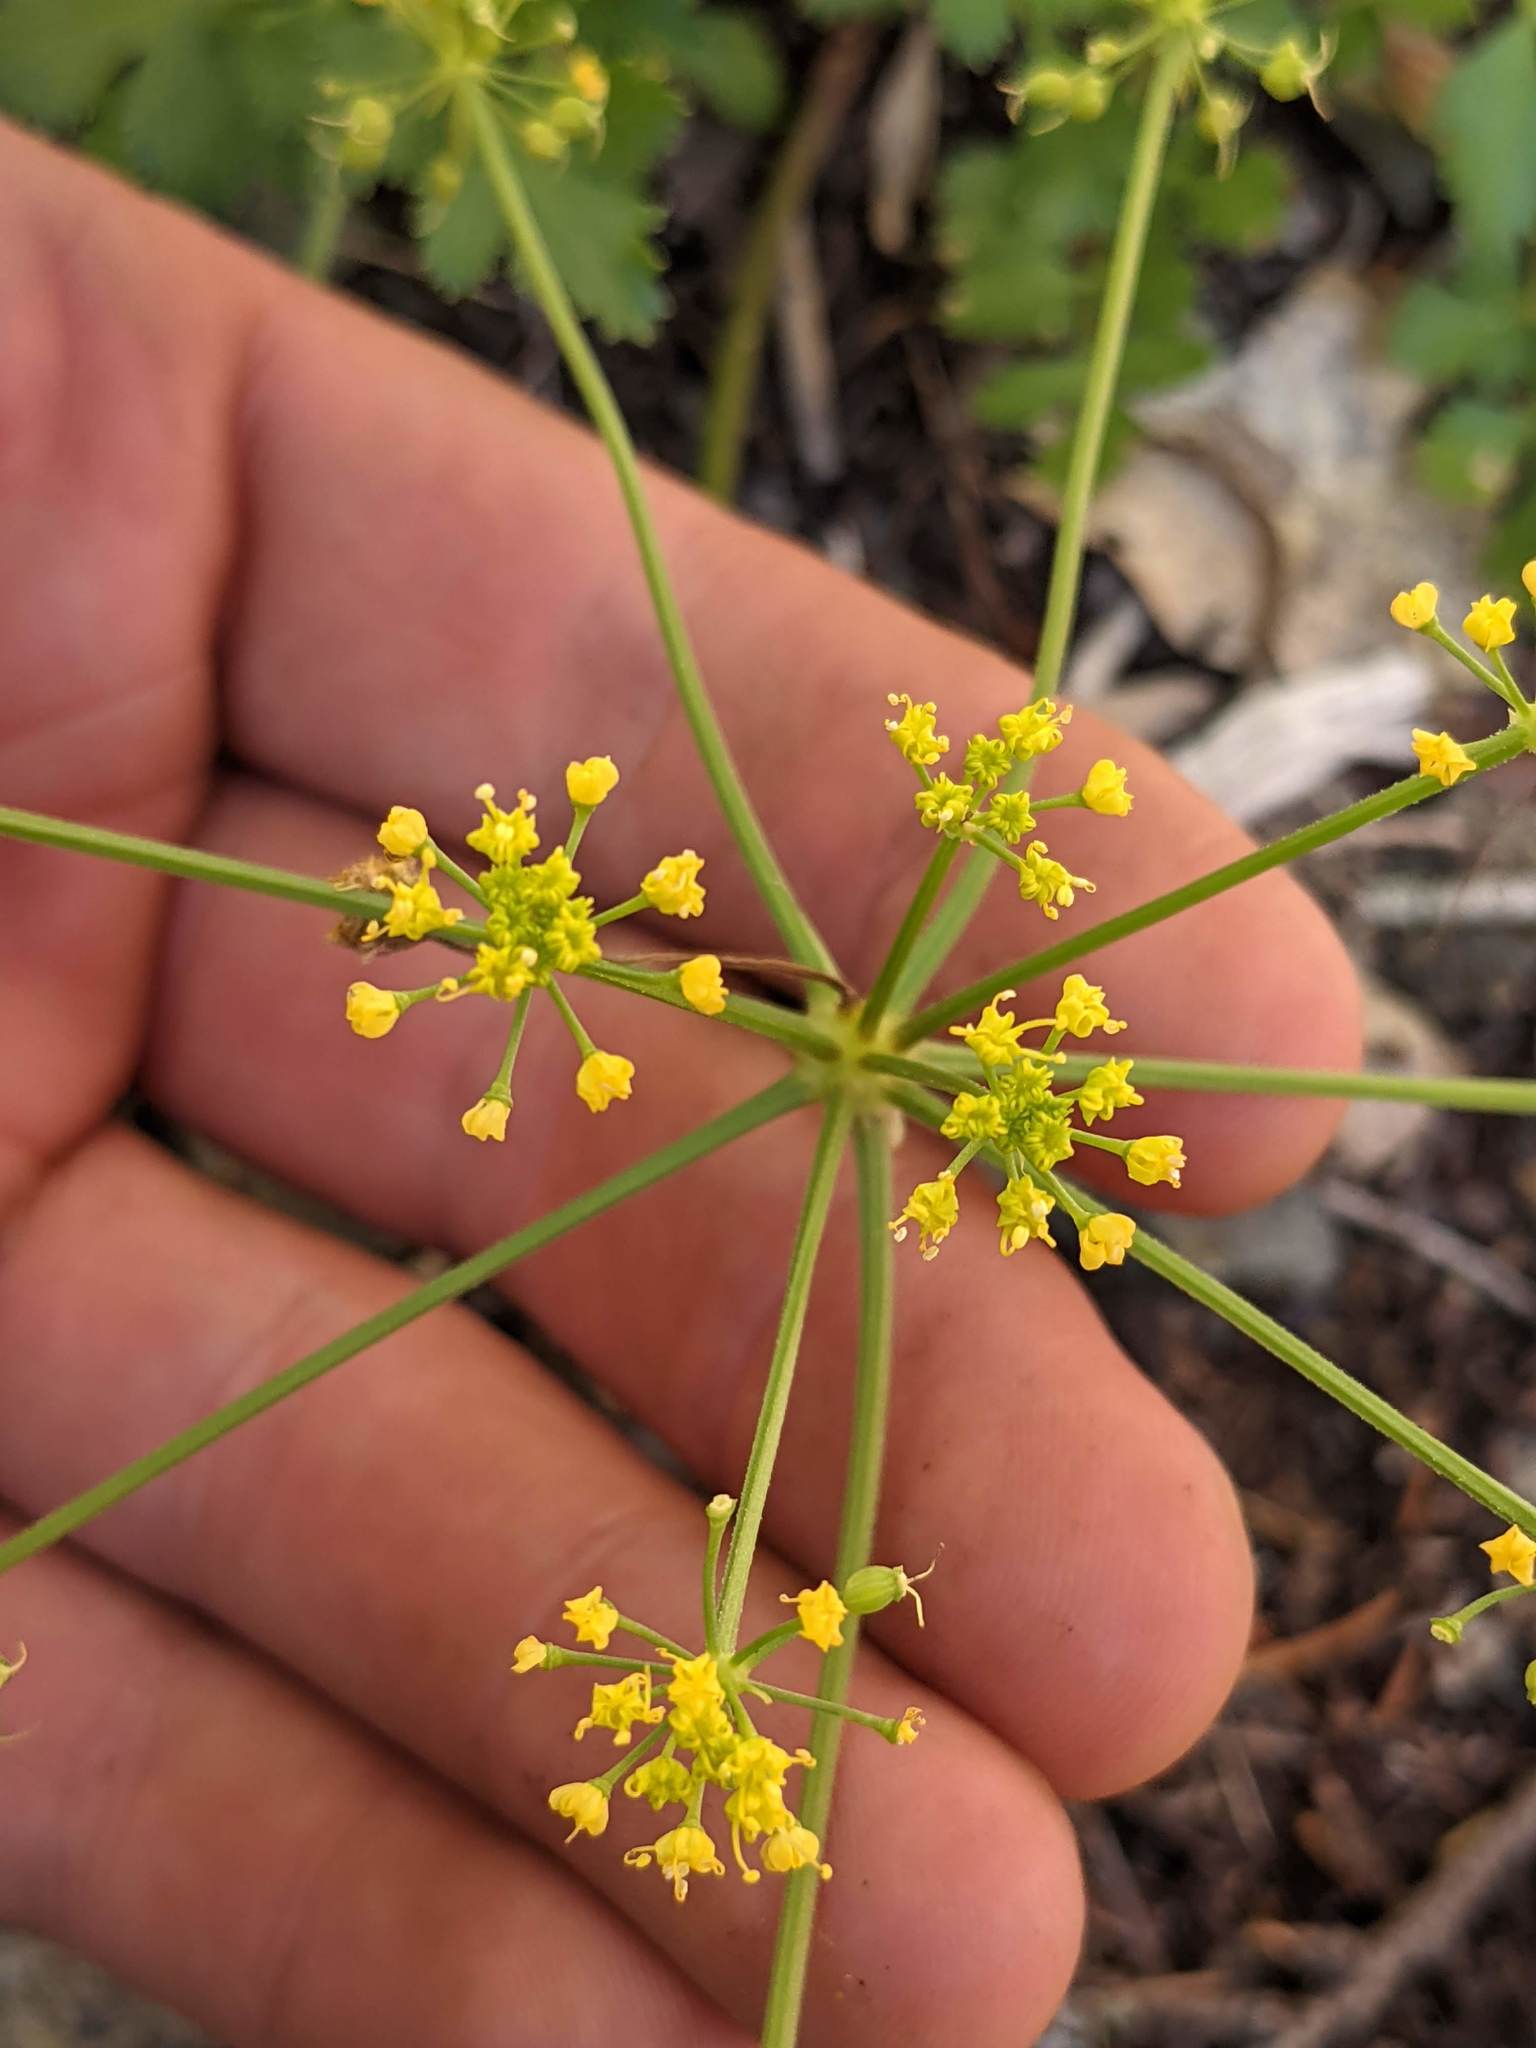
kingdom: Plantae
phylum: Tracheophyta
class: Magnoliopsida
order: Apiales
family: Apiaceae
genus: Tauschia
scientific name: Tauschia kelloggii
